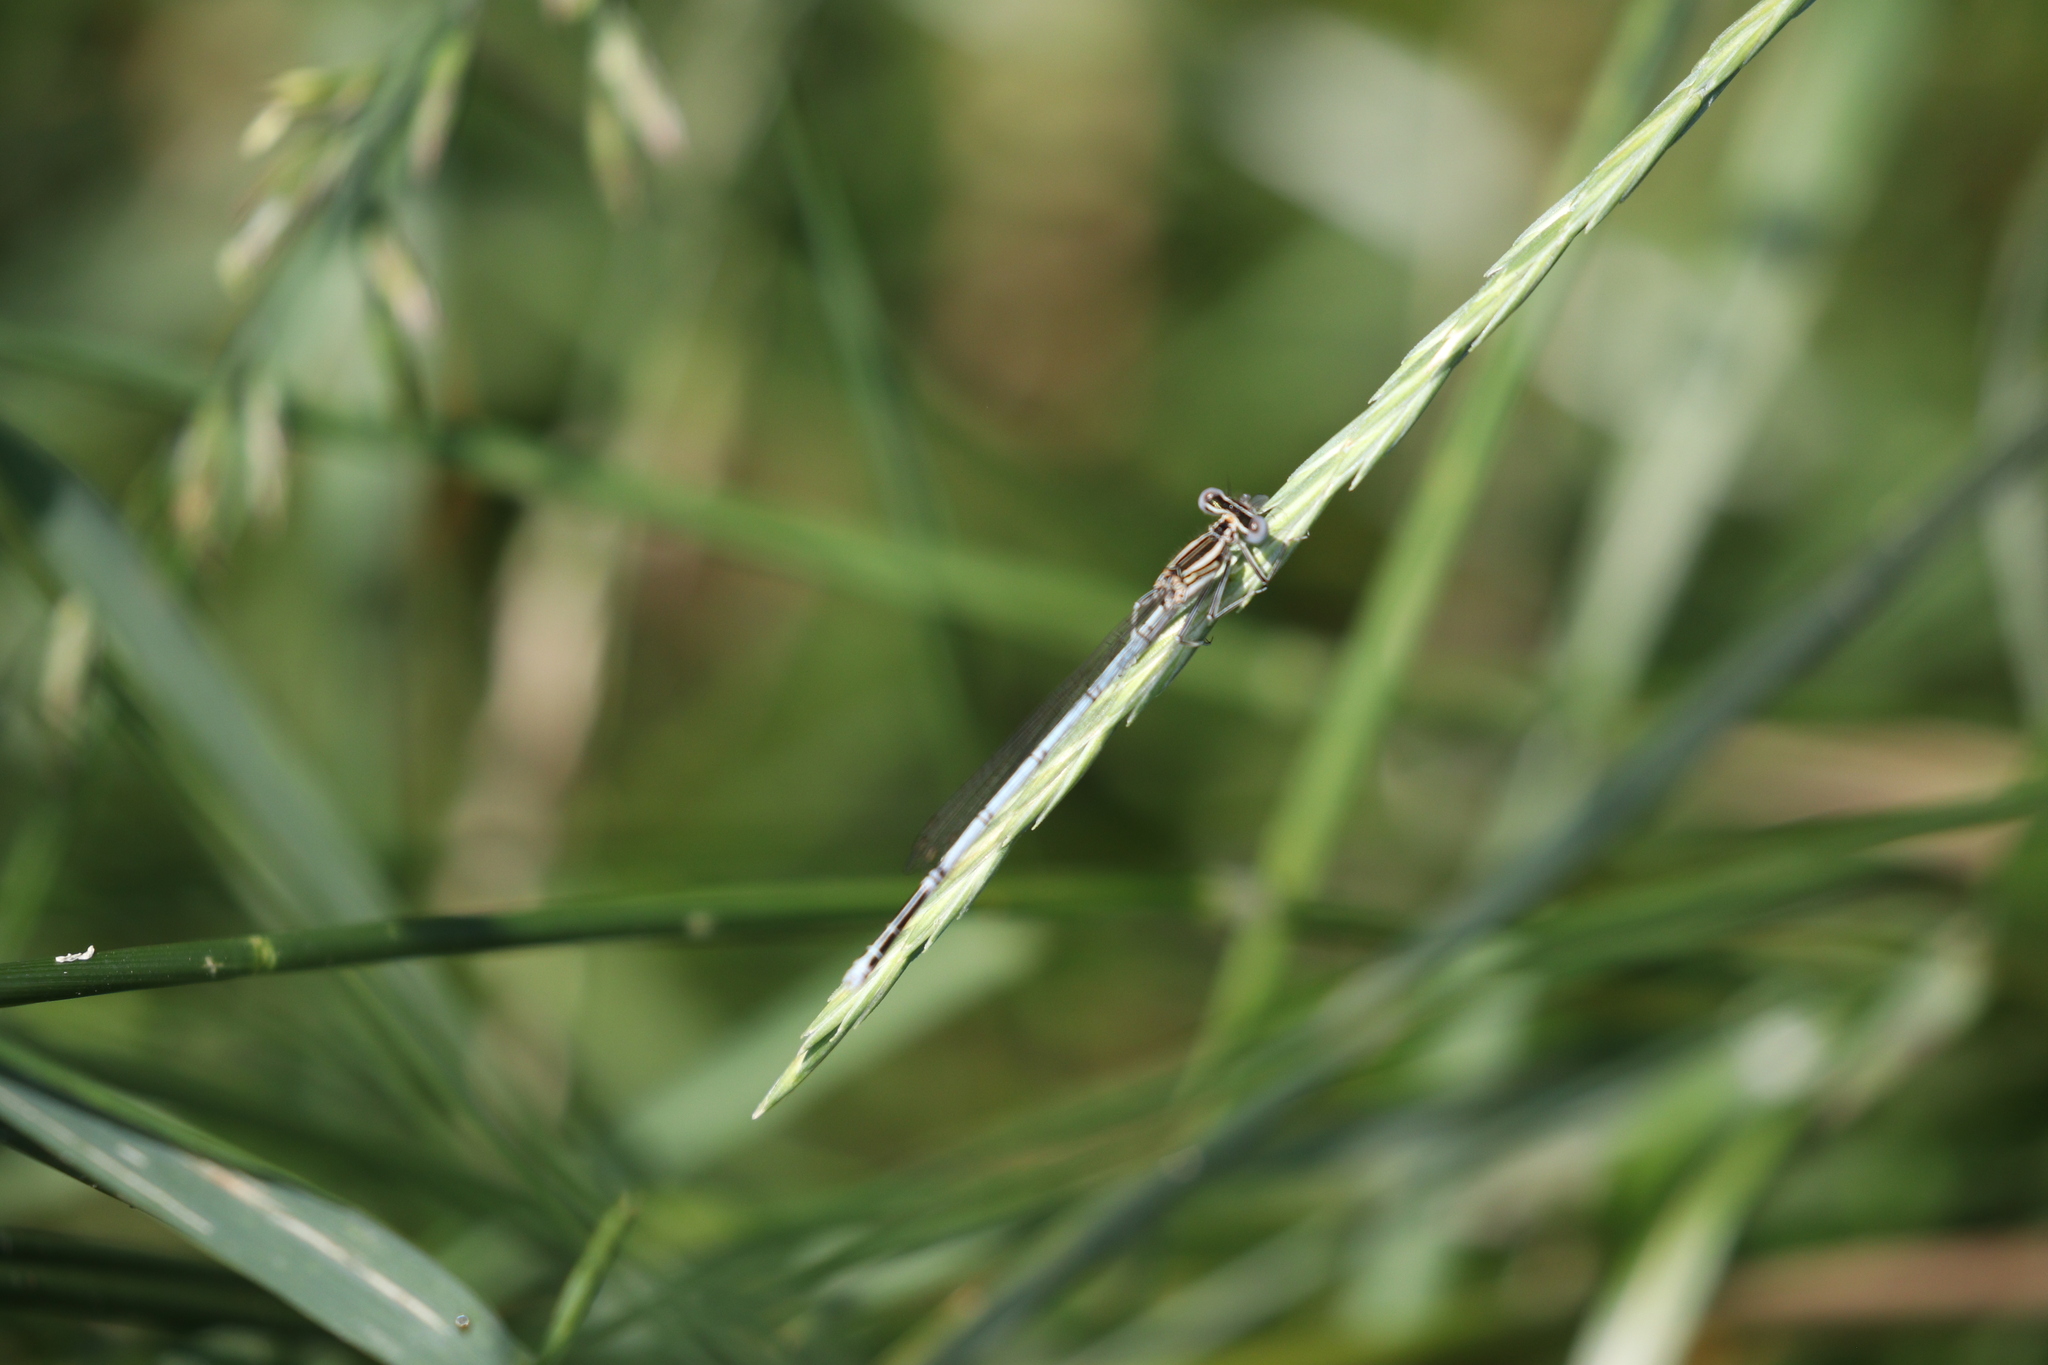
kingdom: Animalia
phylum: Arthropoda
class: Insecta
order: Odonata
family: Platycnemididae
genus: Platycnemis
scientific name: Platycnemis pennipes
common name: White-legged damselfly
